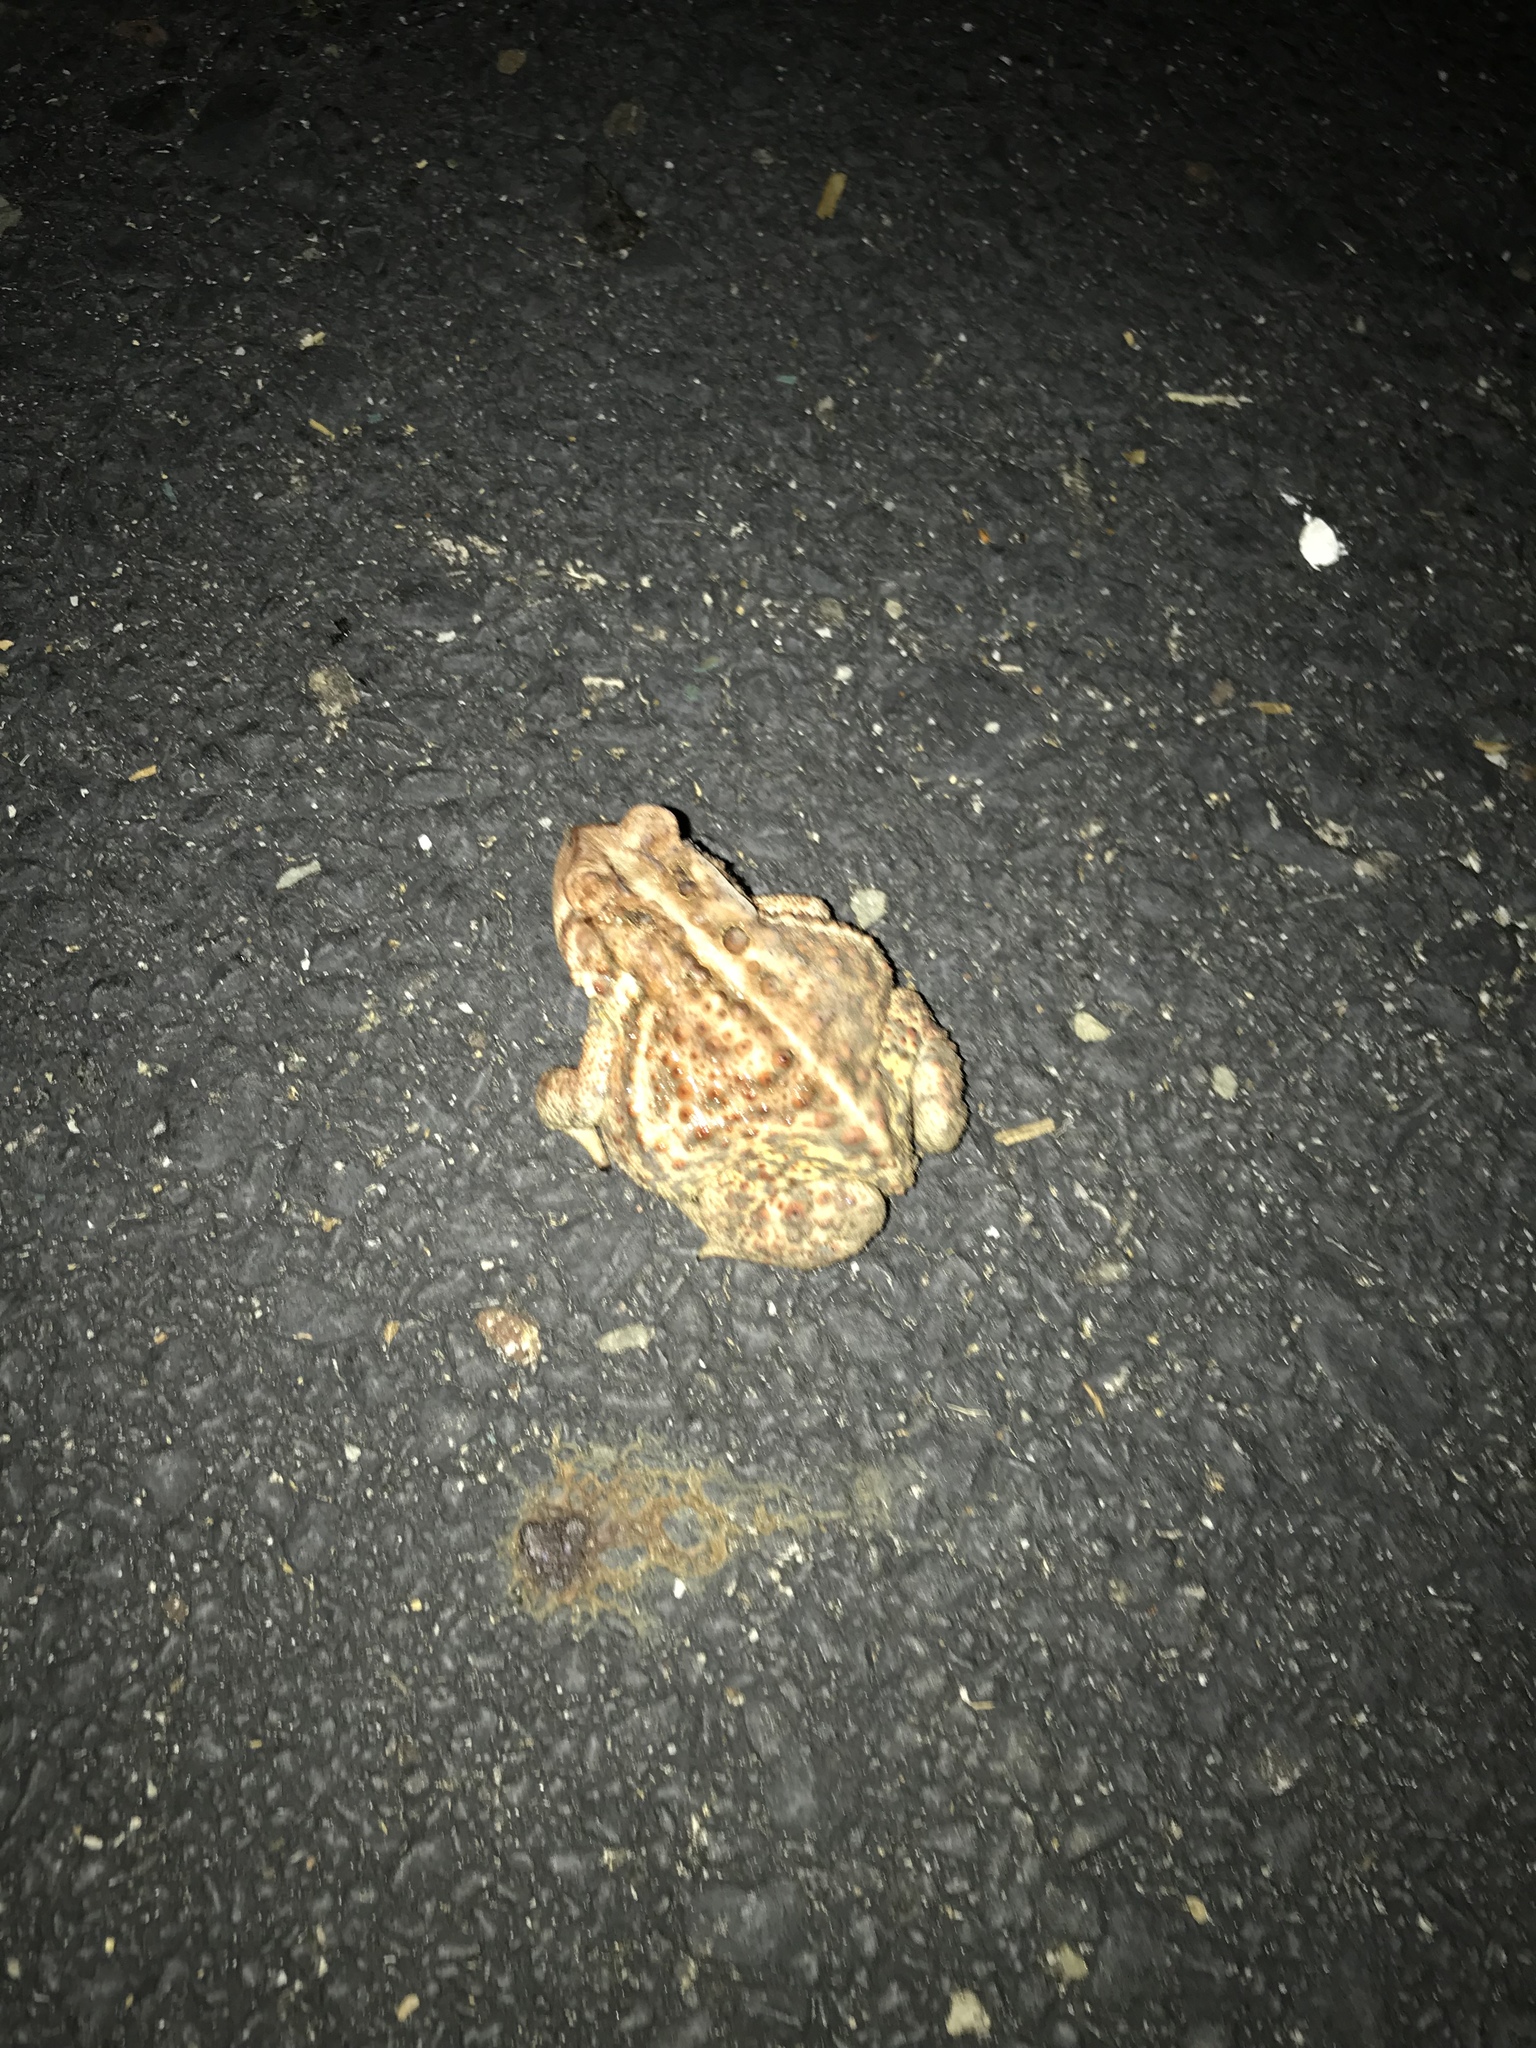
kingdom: Animalia
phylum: Chordata
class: Amphibia
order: Anura
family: Bufonidae
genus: Anaxyrus
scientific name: Anaxyrus americanus
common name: American toad
